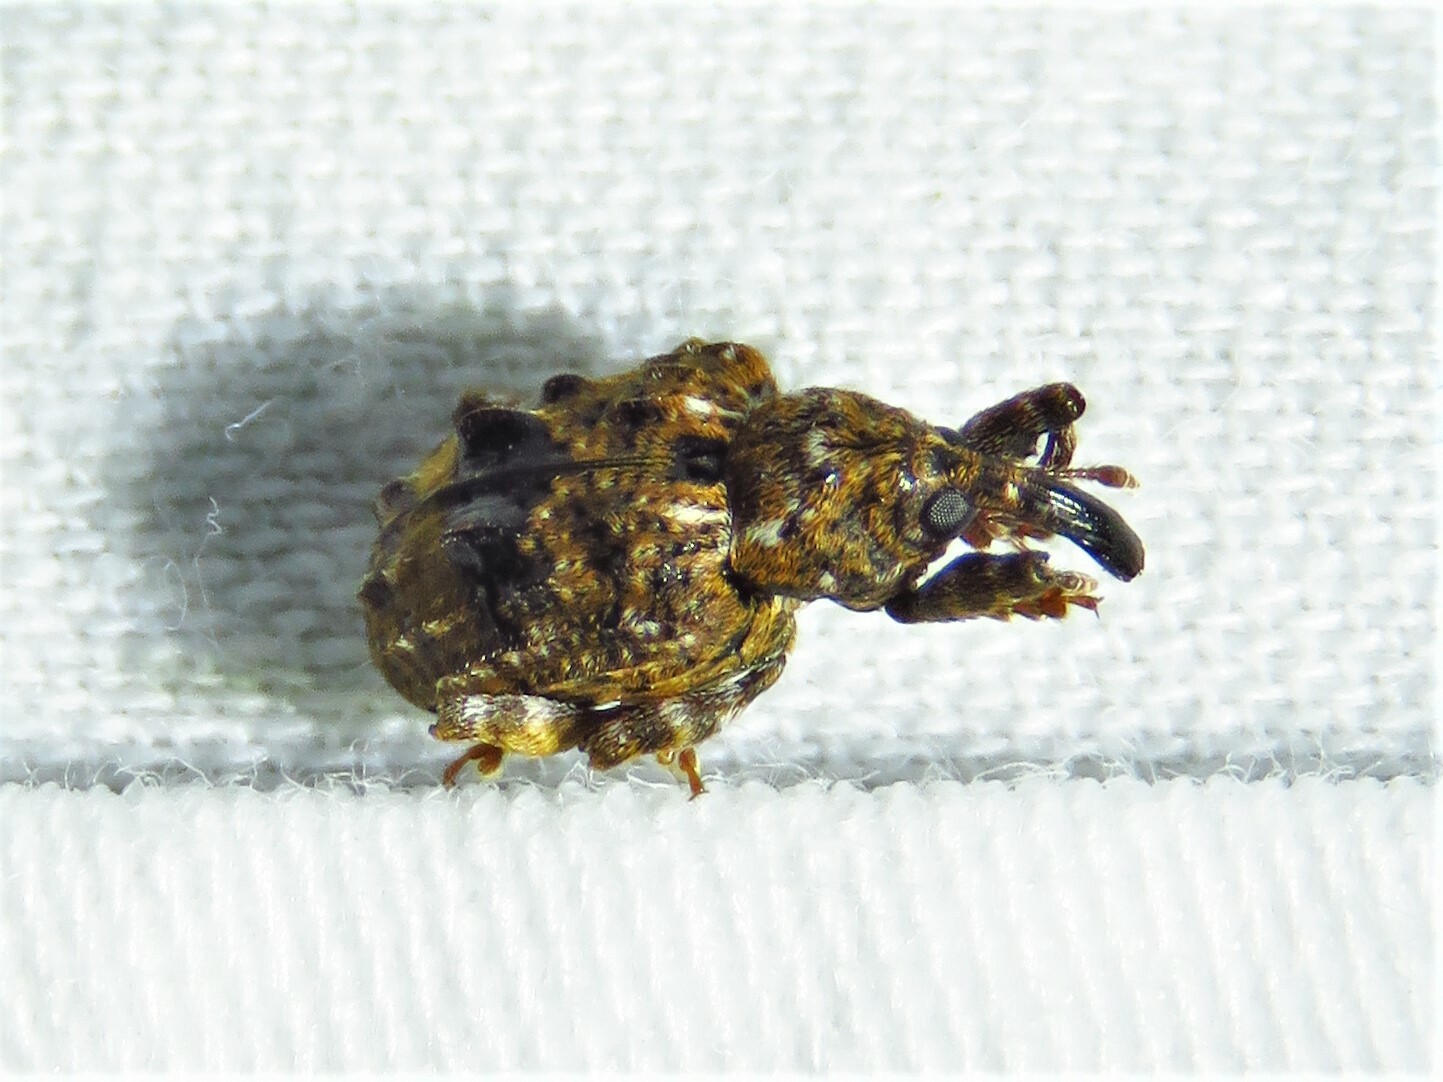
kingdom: Animalia
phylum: Arthropoda
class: Insecta
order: Coleoptera
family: Curculionidae
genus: Conotrachelus
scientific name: Conotrachelus nenuphar
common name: Plum curculio
